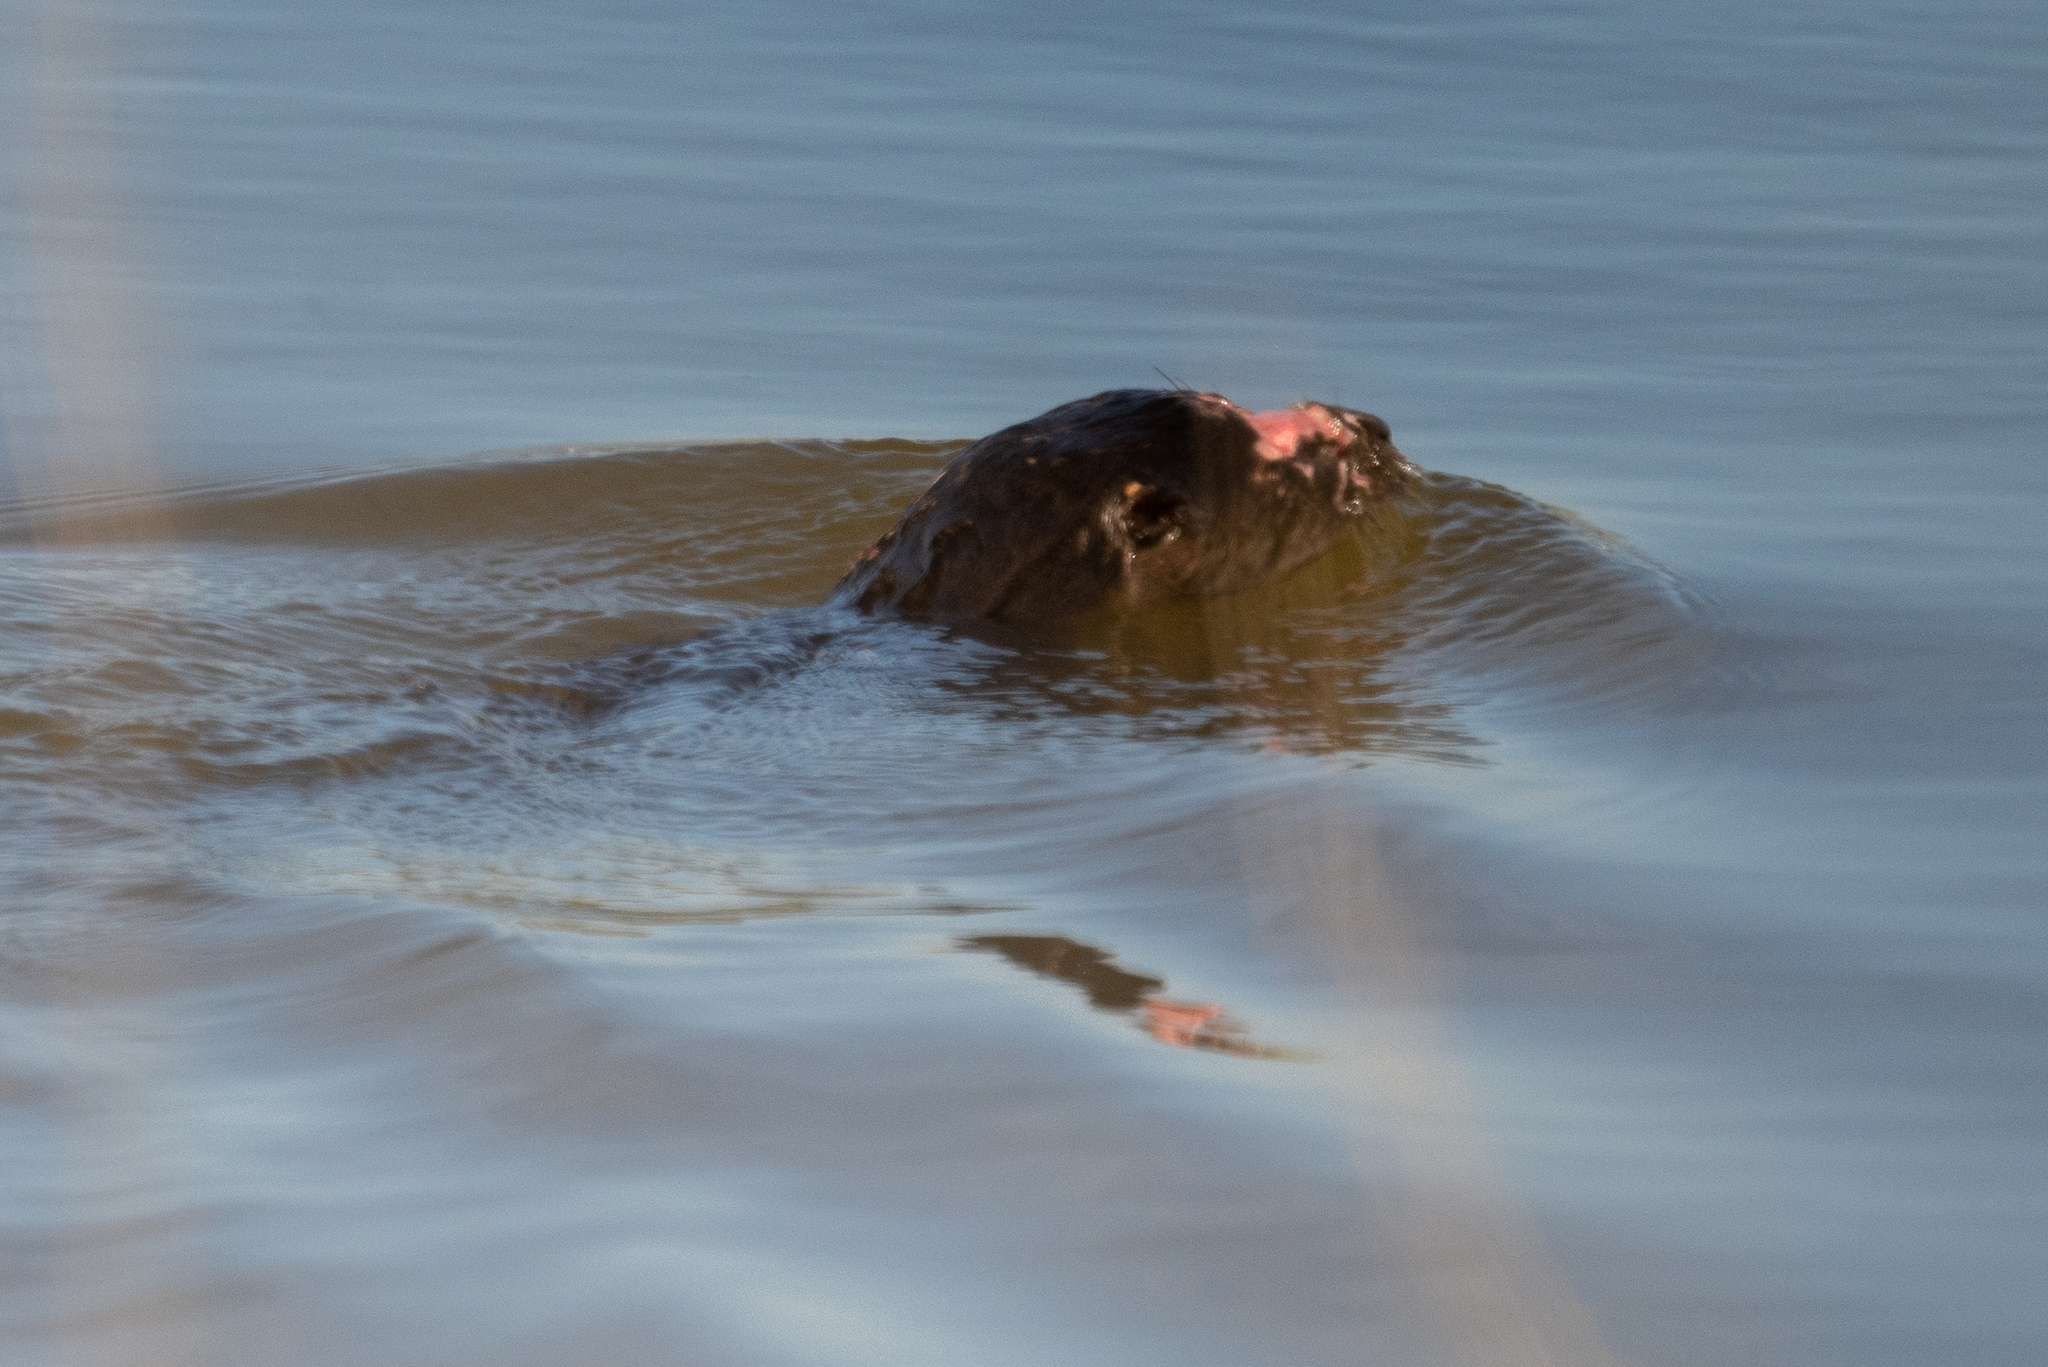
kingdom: Animalia
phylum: Chordata
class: Mammalia
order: Carnivora
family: Mustelidae
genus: Lontra
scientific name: Lontra canadensis
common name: North american river otter
